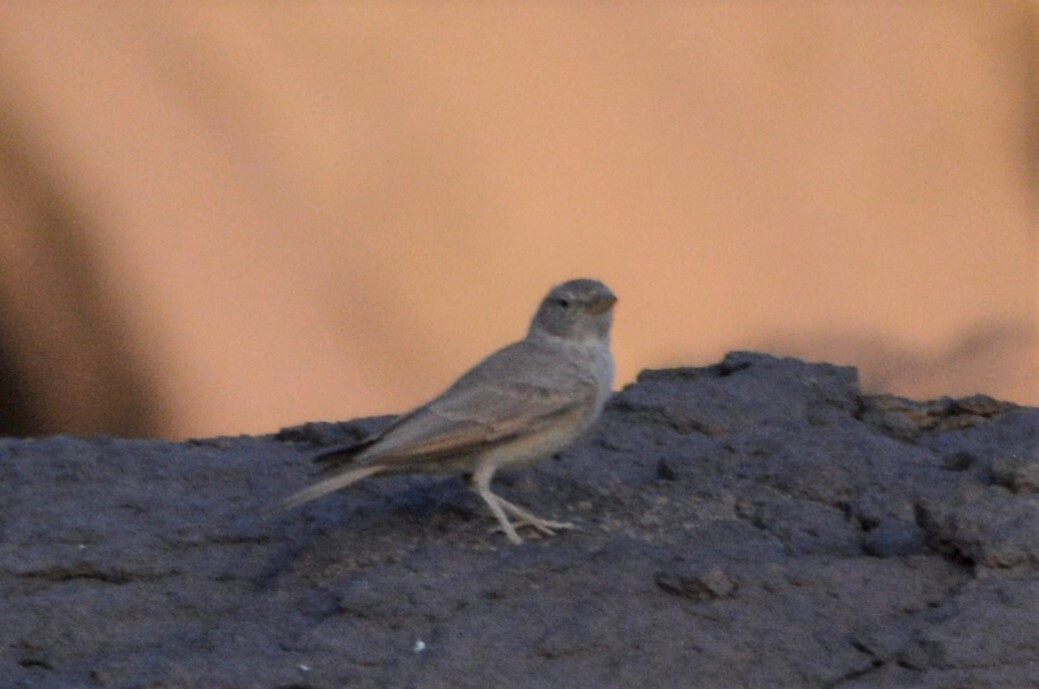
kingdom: Animalia
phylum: Chordata
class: Aves
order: Passeriformes
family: Alaudidae
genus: Ammomanes
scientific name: Ammomanes deserti
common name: Desert lark
